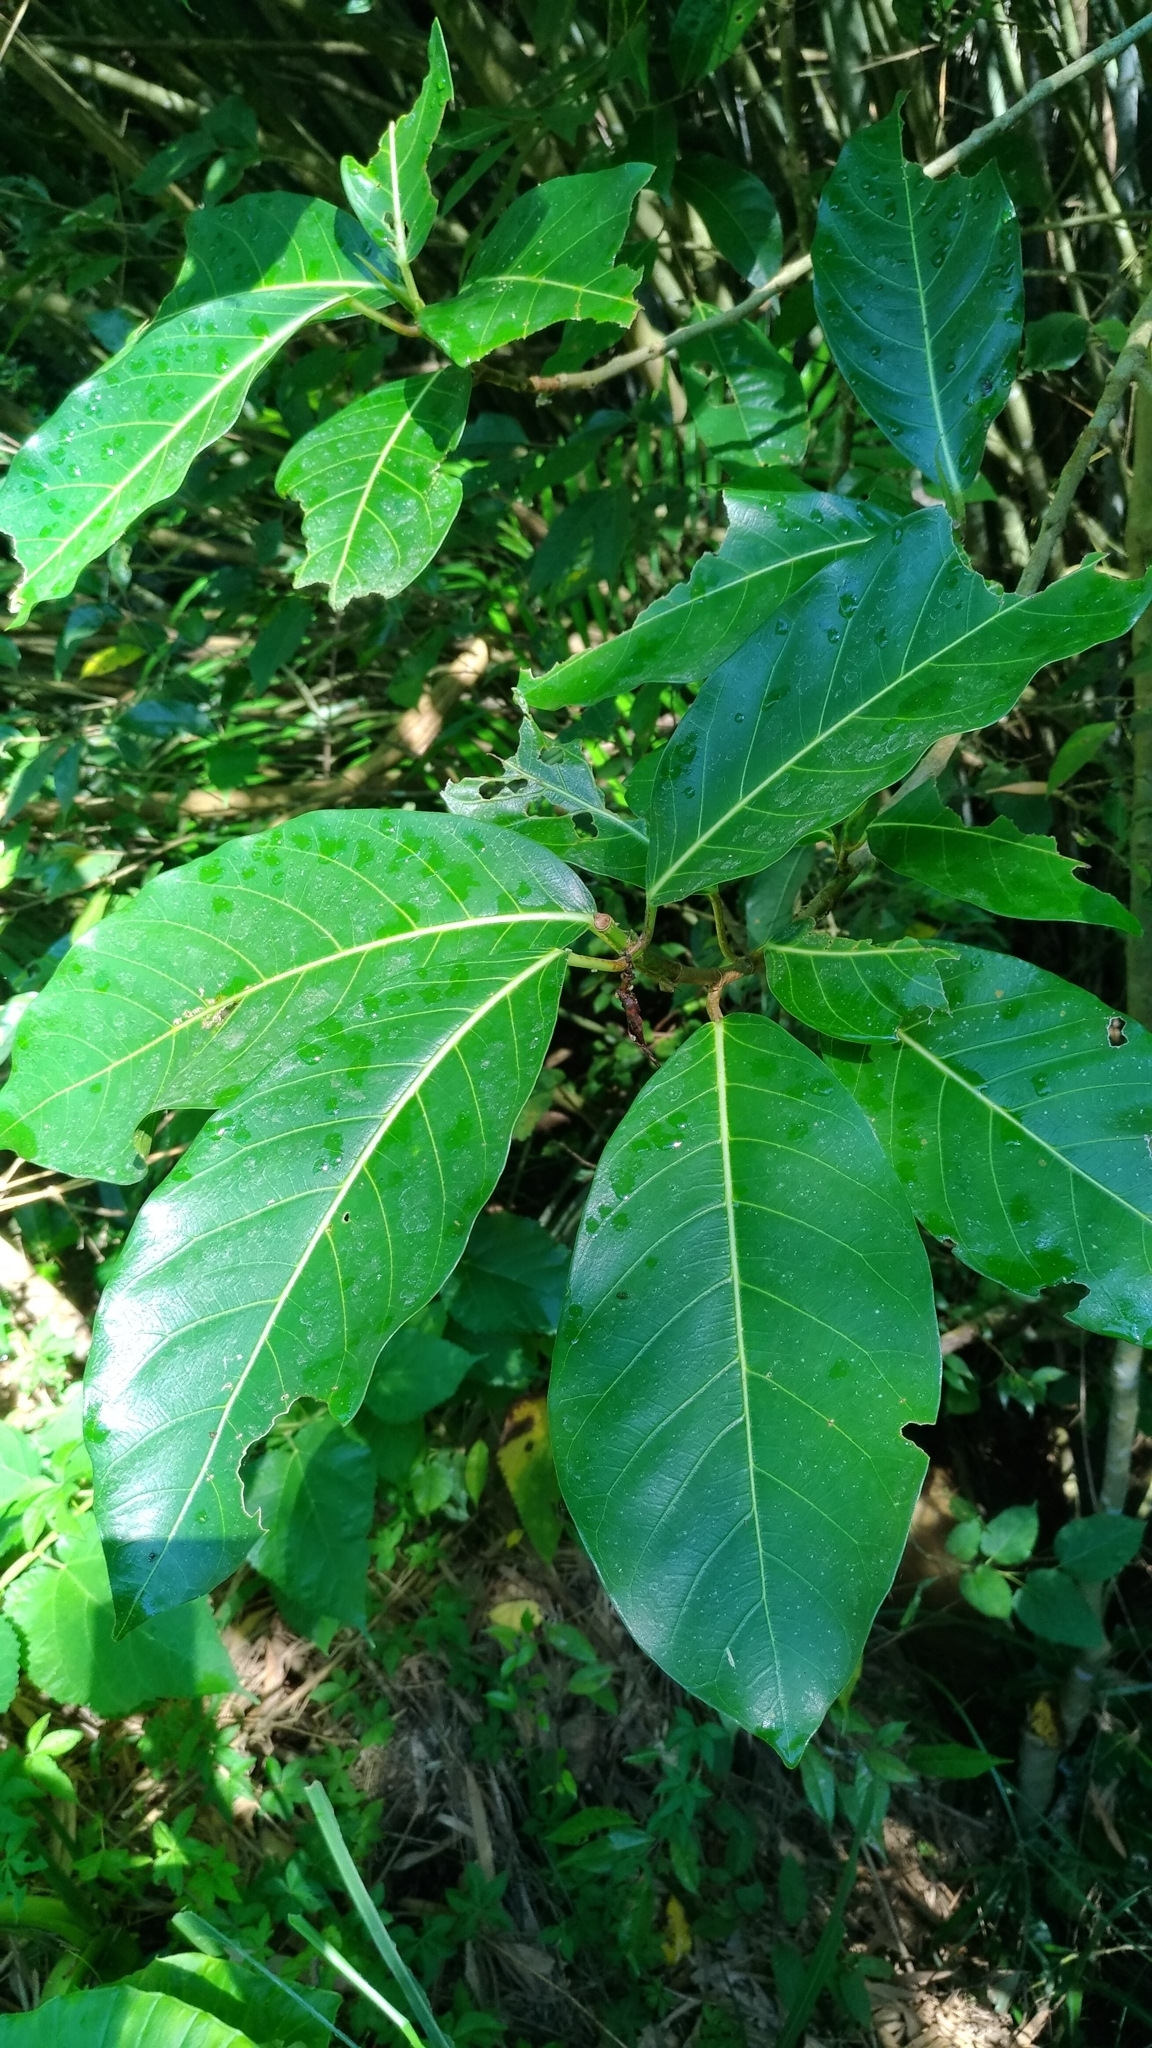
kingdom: Plantae
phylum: Tracheophyta
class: Magnoliopsida
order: Rosales
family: Moraceae
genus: Ficus
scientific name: Ficus septica
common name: Septic fig
